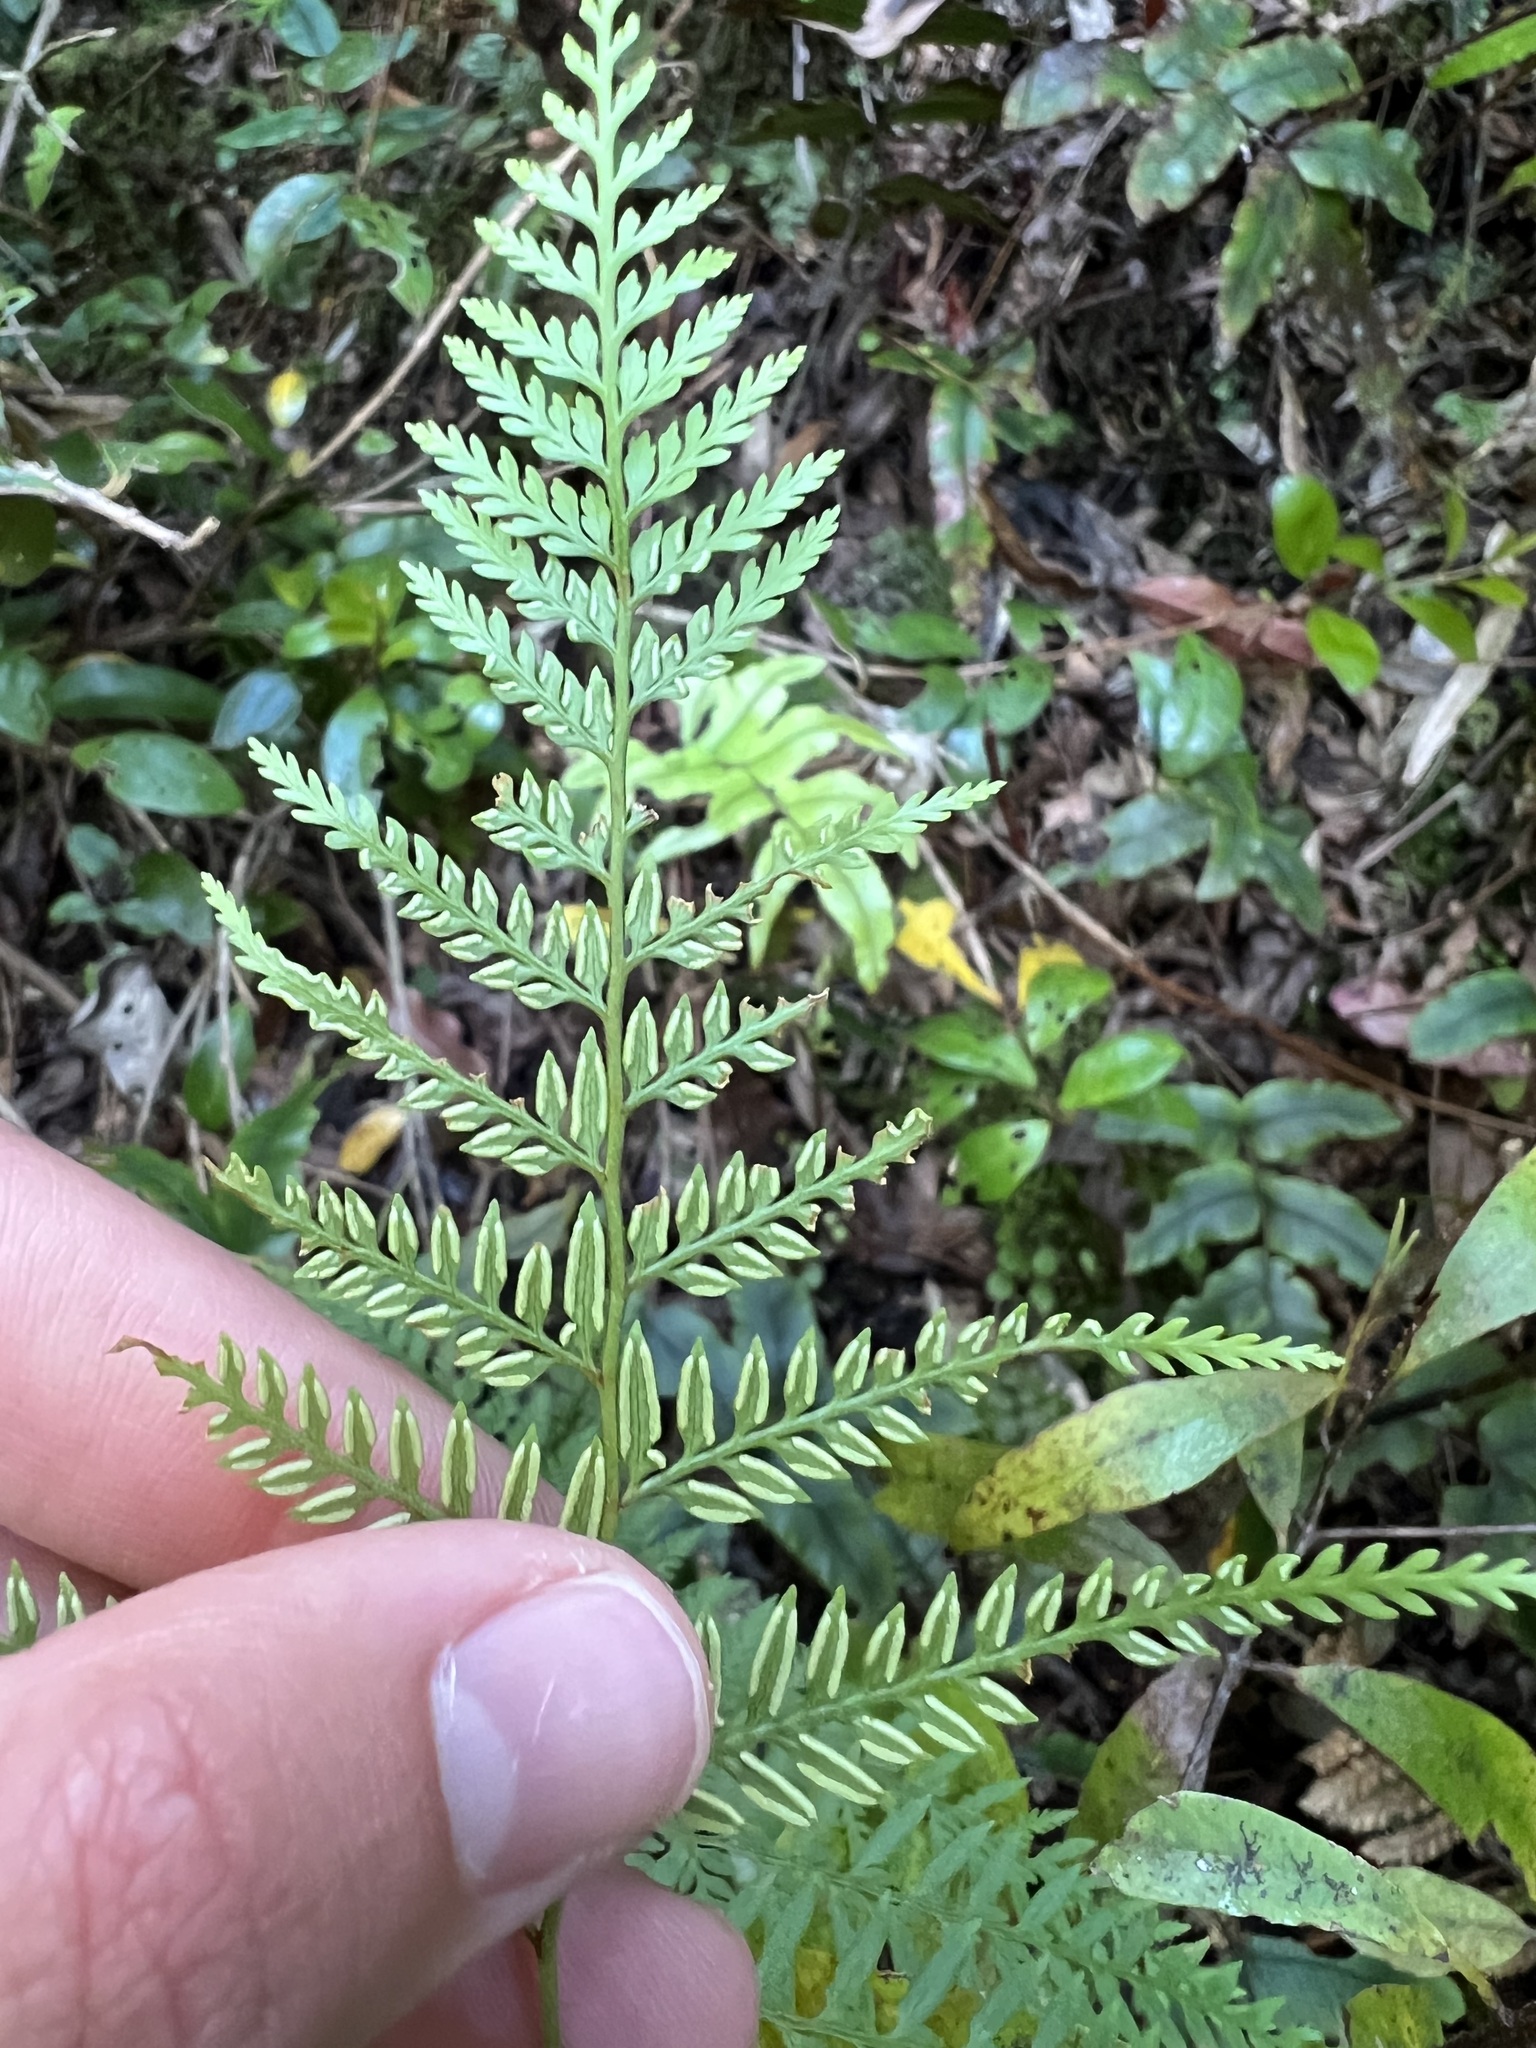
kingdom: Plantae
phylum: Tracheophyta
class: Polypodiopsida
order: Polypodiales
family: Dennstaedtiaceae
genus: Paesia
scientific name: Paesia scaberula
